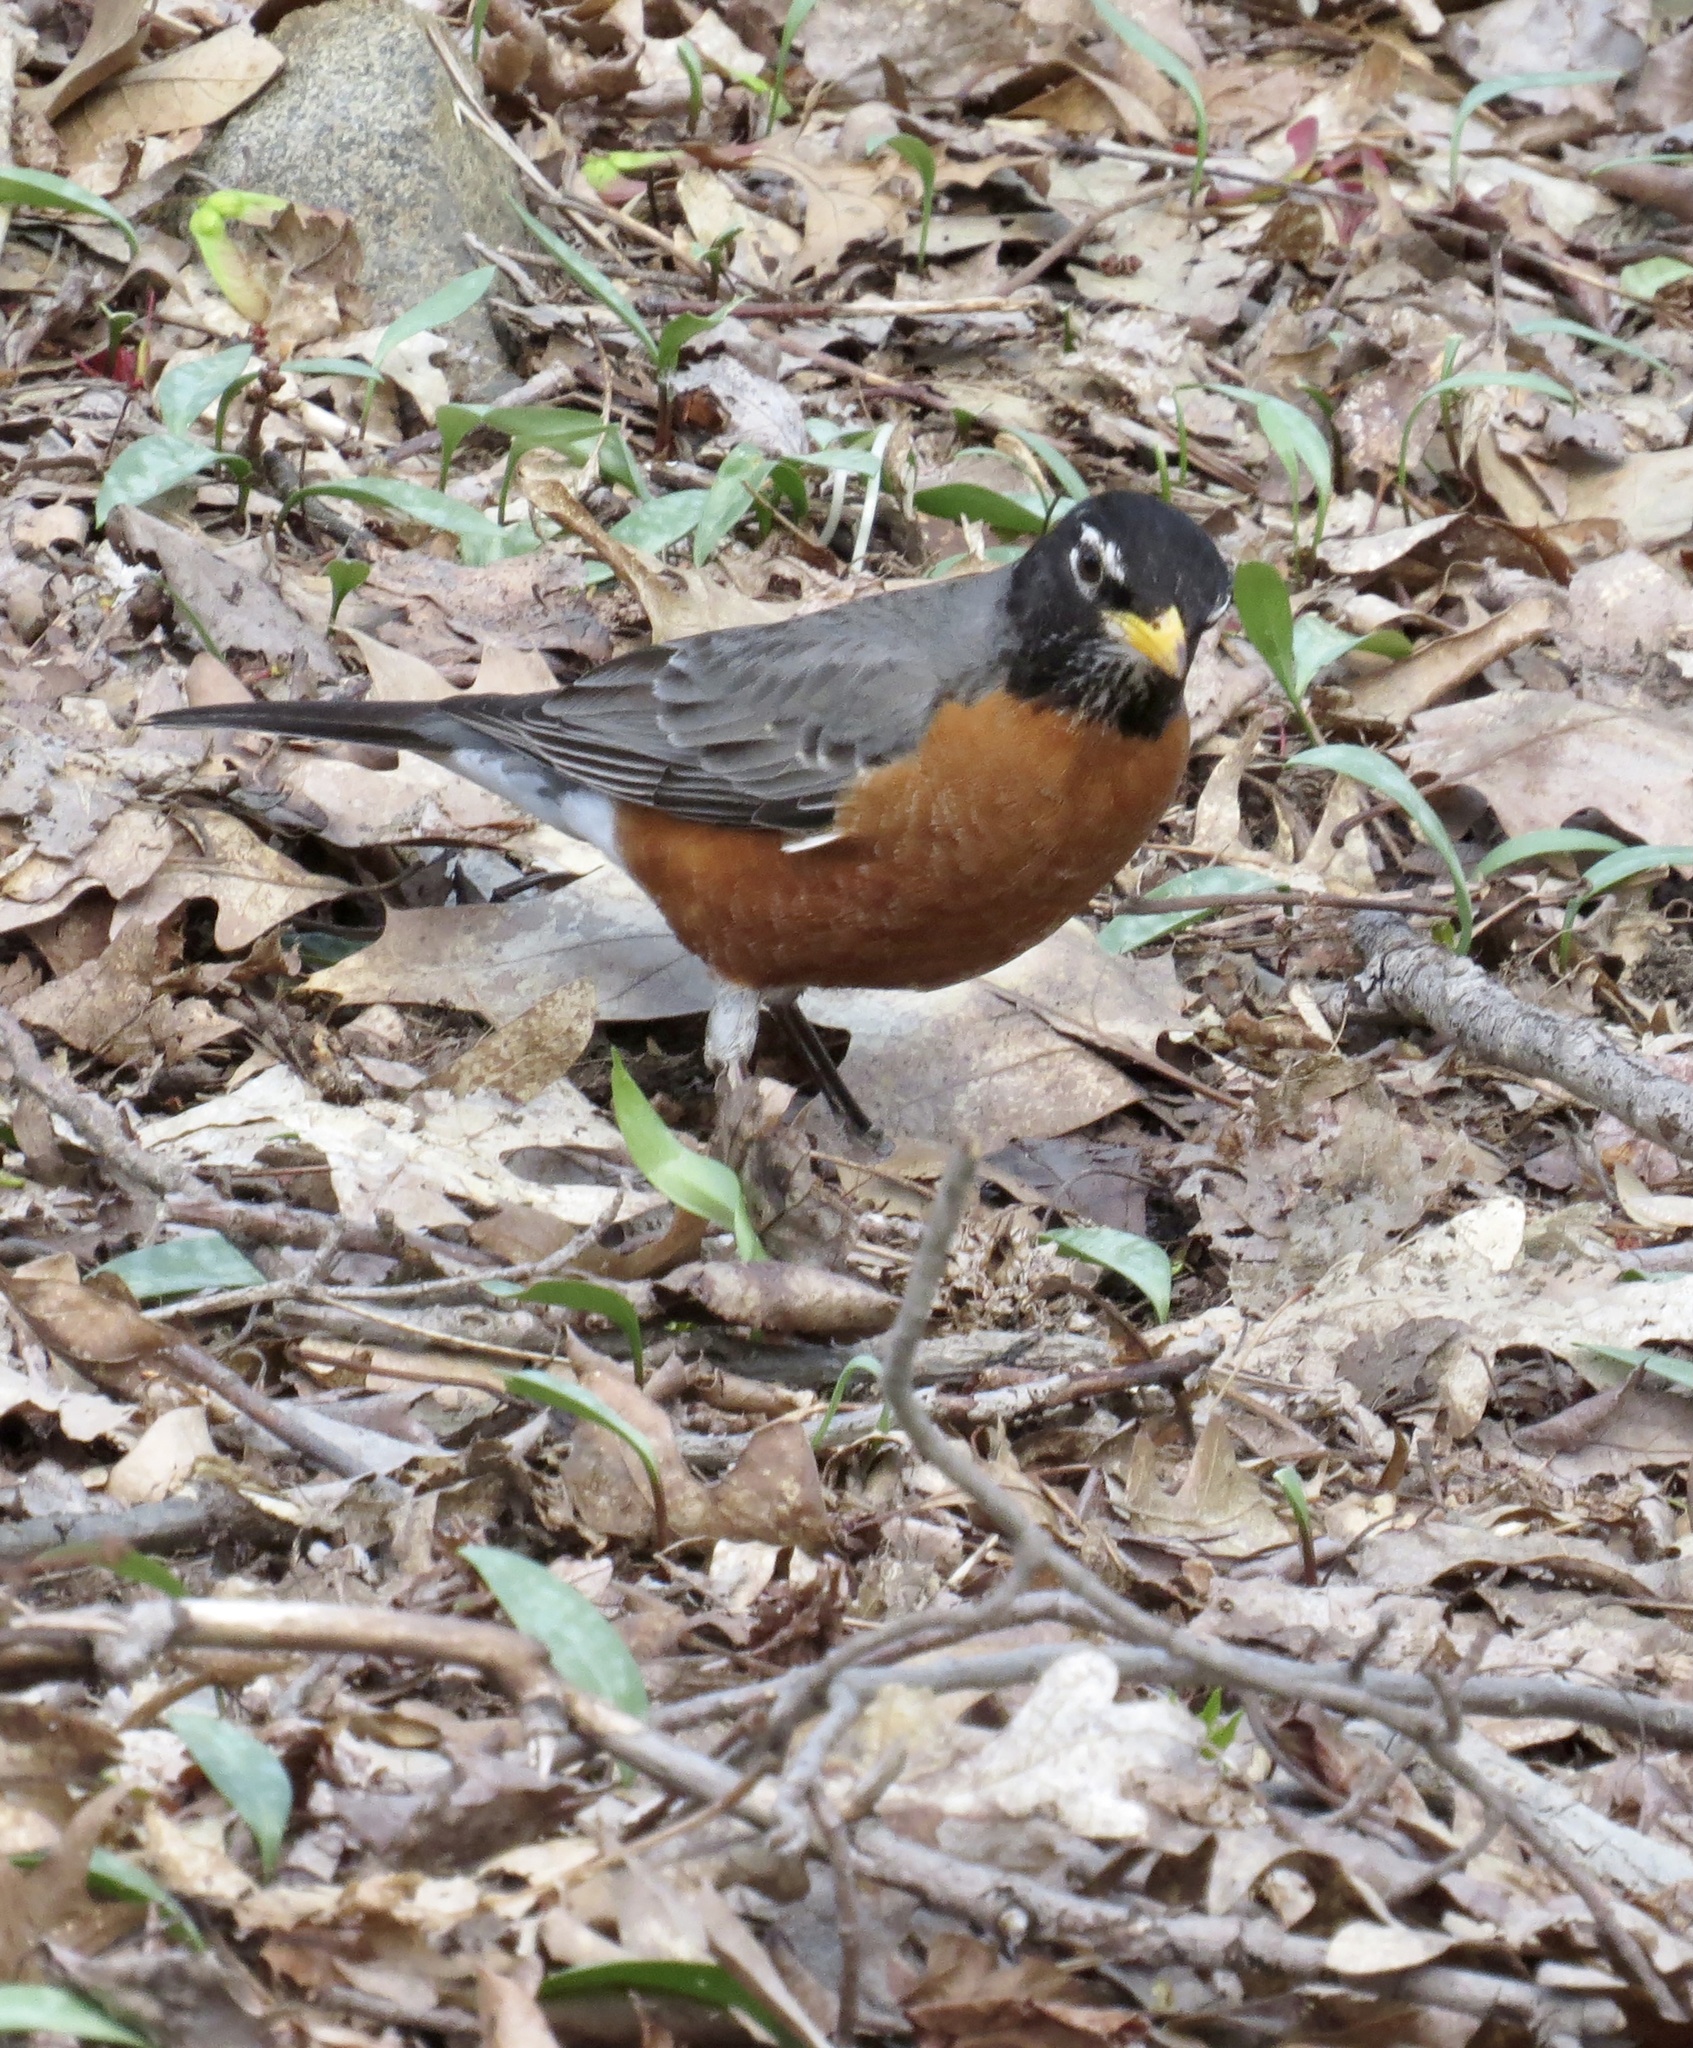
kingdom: Animalia
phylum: Chordata
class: Aves
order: Passeriformes
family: Turdidae
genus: Turdus
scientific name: Turdus migratorius
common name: American robin
